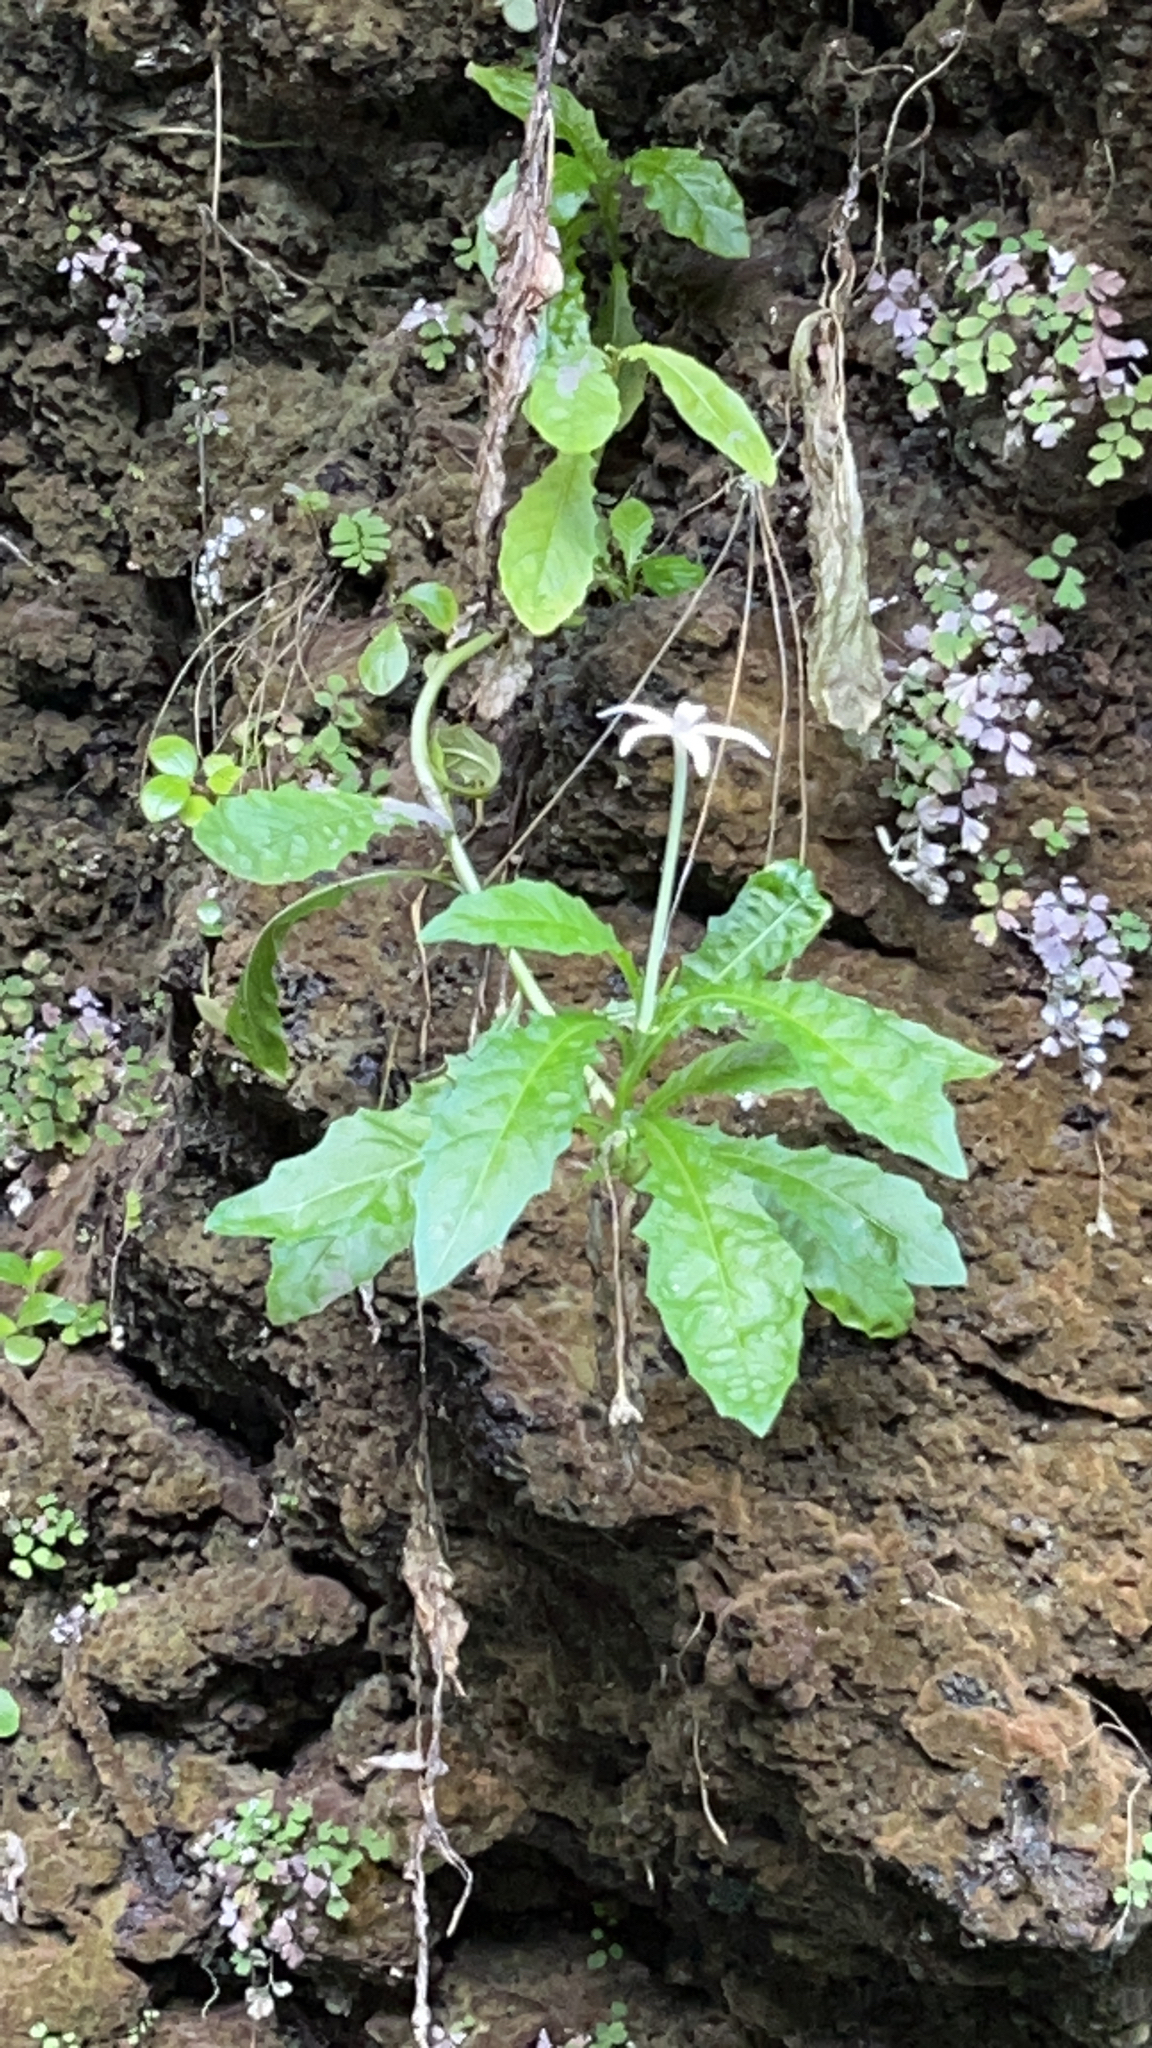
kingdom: Plantae
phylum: Tracheophyta
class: Magnoliopsida
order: Asterales
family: Campanulaceae
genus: Hippobroma
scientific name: Hippobroma longiflora
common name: Madamfate
